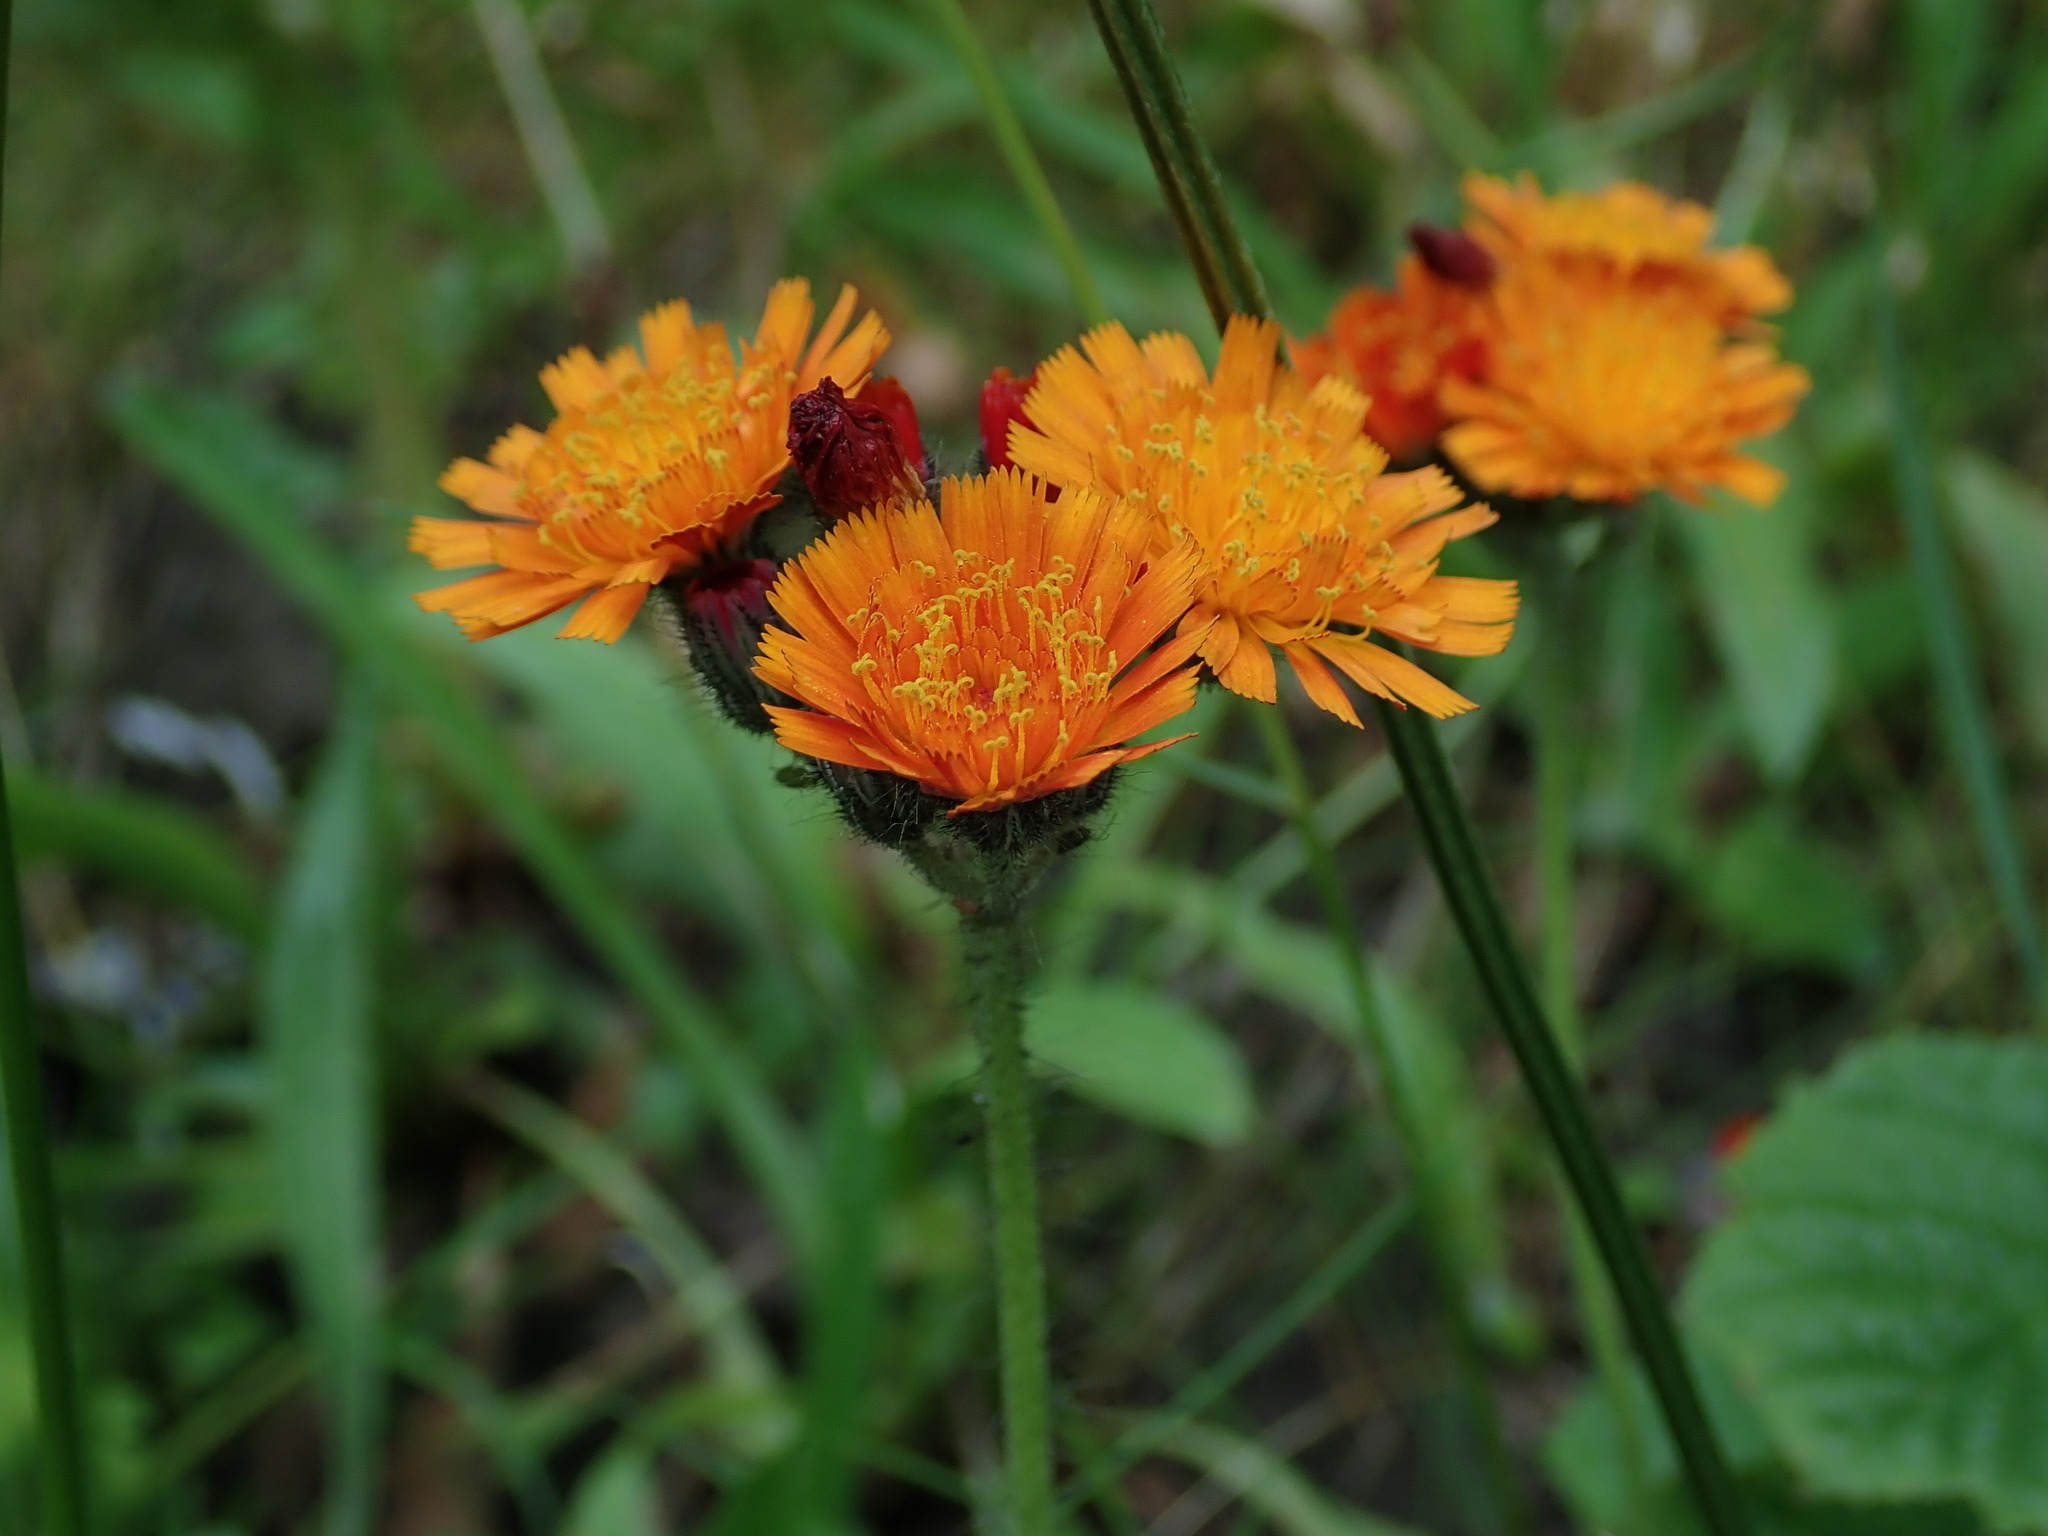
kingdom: Plantae
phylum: Tracheophyta
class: Magnoliopsida
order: Asterales
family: Asteraceae
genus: Pilosella
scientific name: Pilosella aurantiaca
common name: Fox-and-cubs
